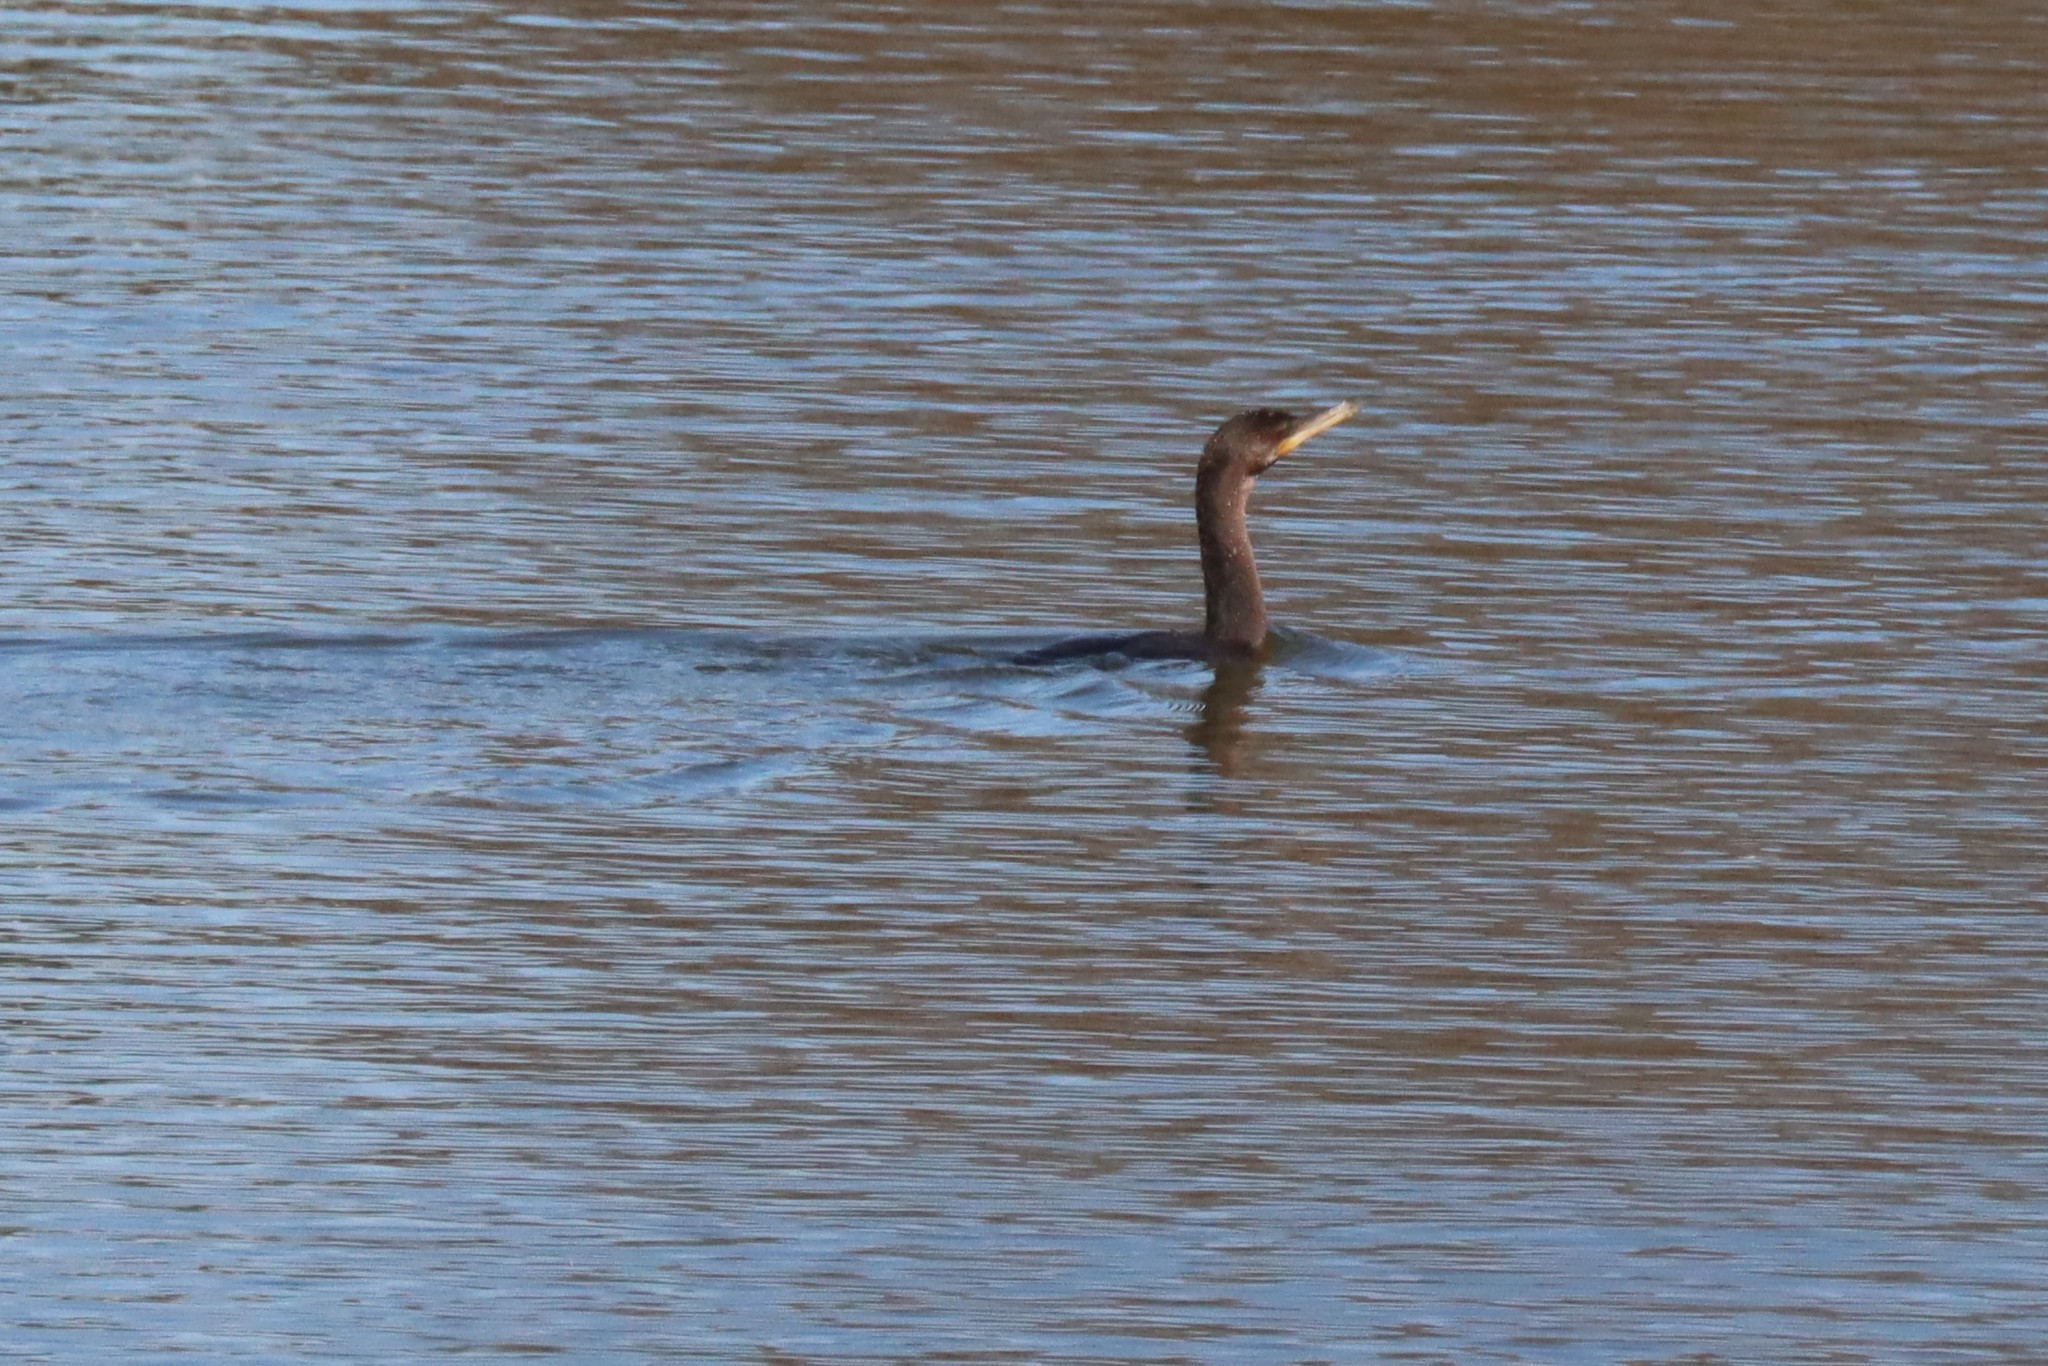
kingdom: Animalia
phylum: Chordata
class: Aves
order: Suliformes
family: Phalacrocoracidae
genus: Phalacrocorax
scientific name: Phalacrocorax brasilianus
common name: Neotropic cormorant
